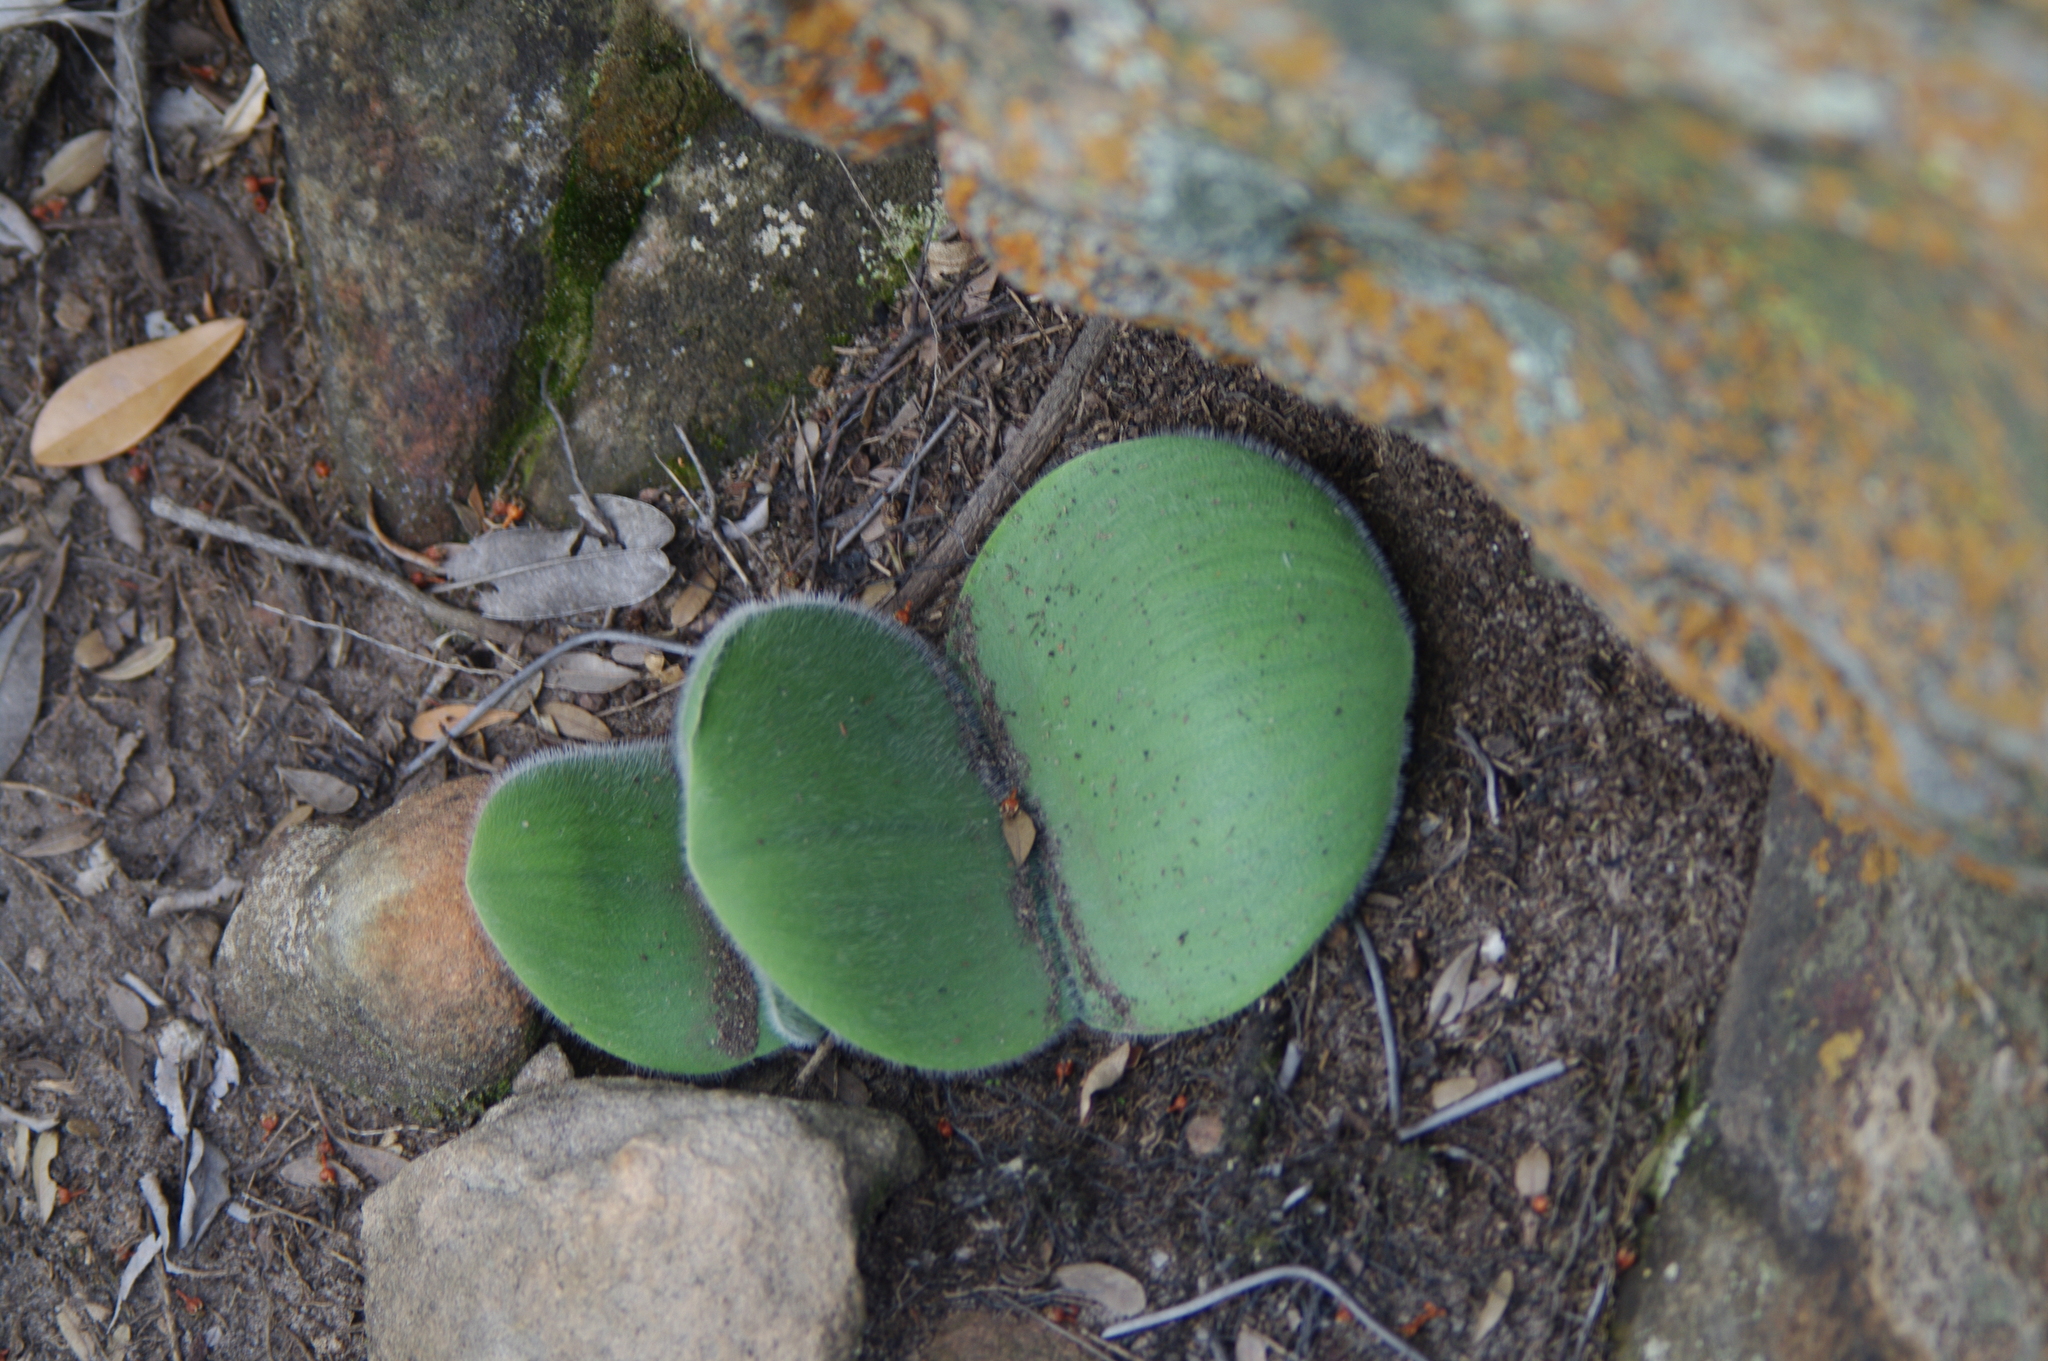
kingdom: Plantae
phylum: Tracheophyta
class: Liliopsida
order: Asparagales
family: Amaryllidaceae
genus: Haemanthus
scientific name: Haemanthus humilis
